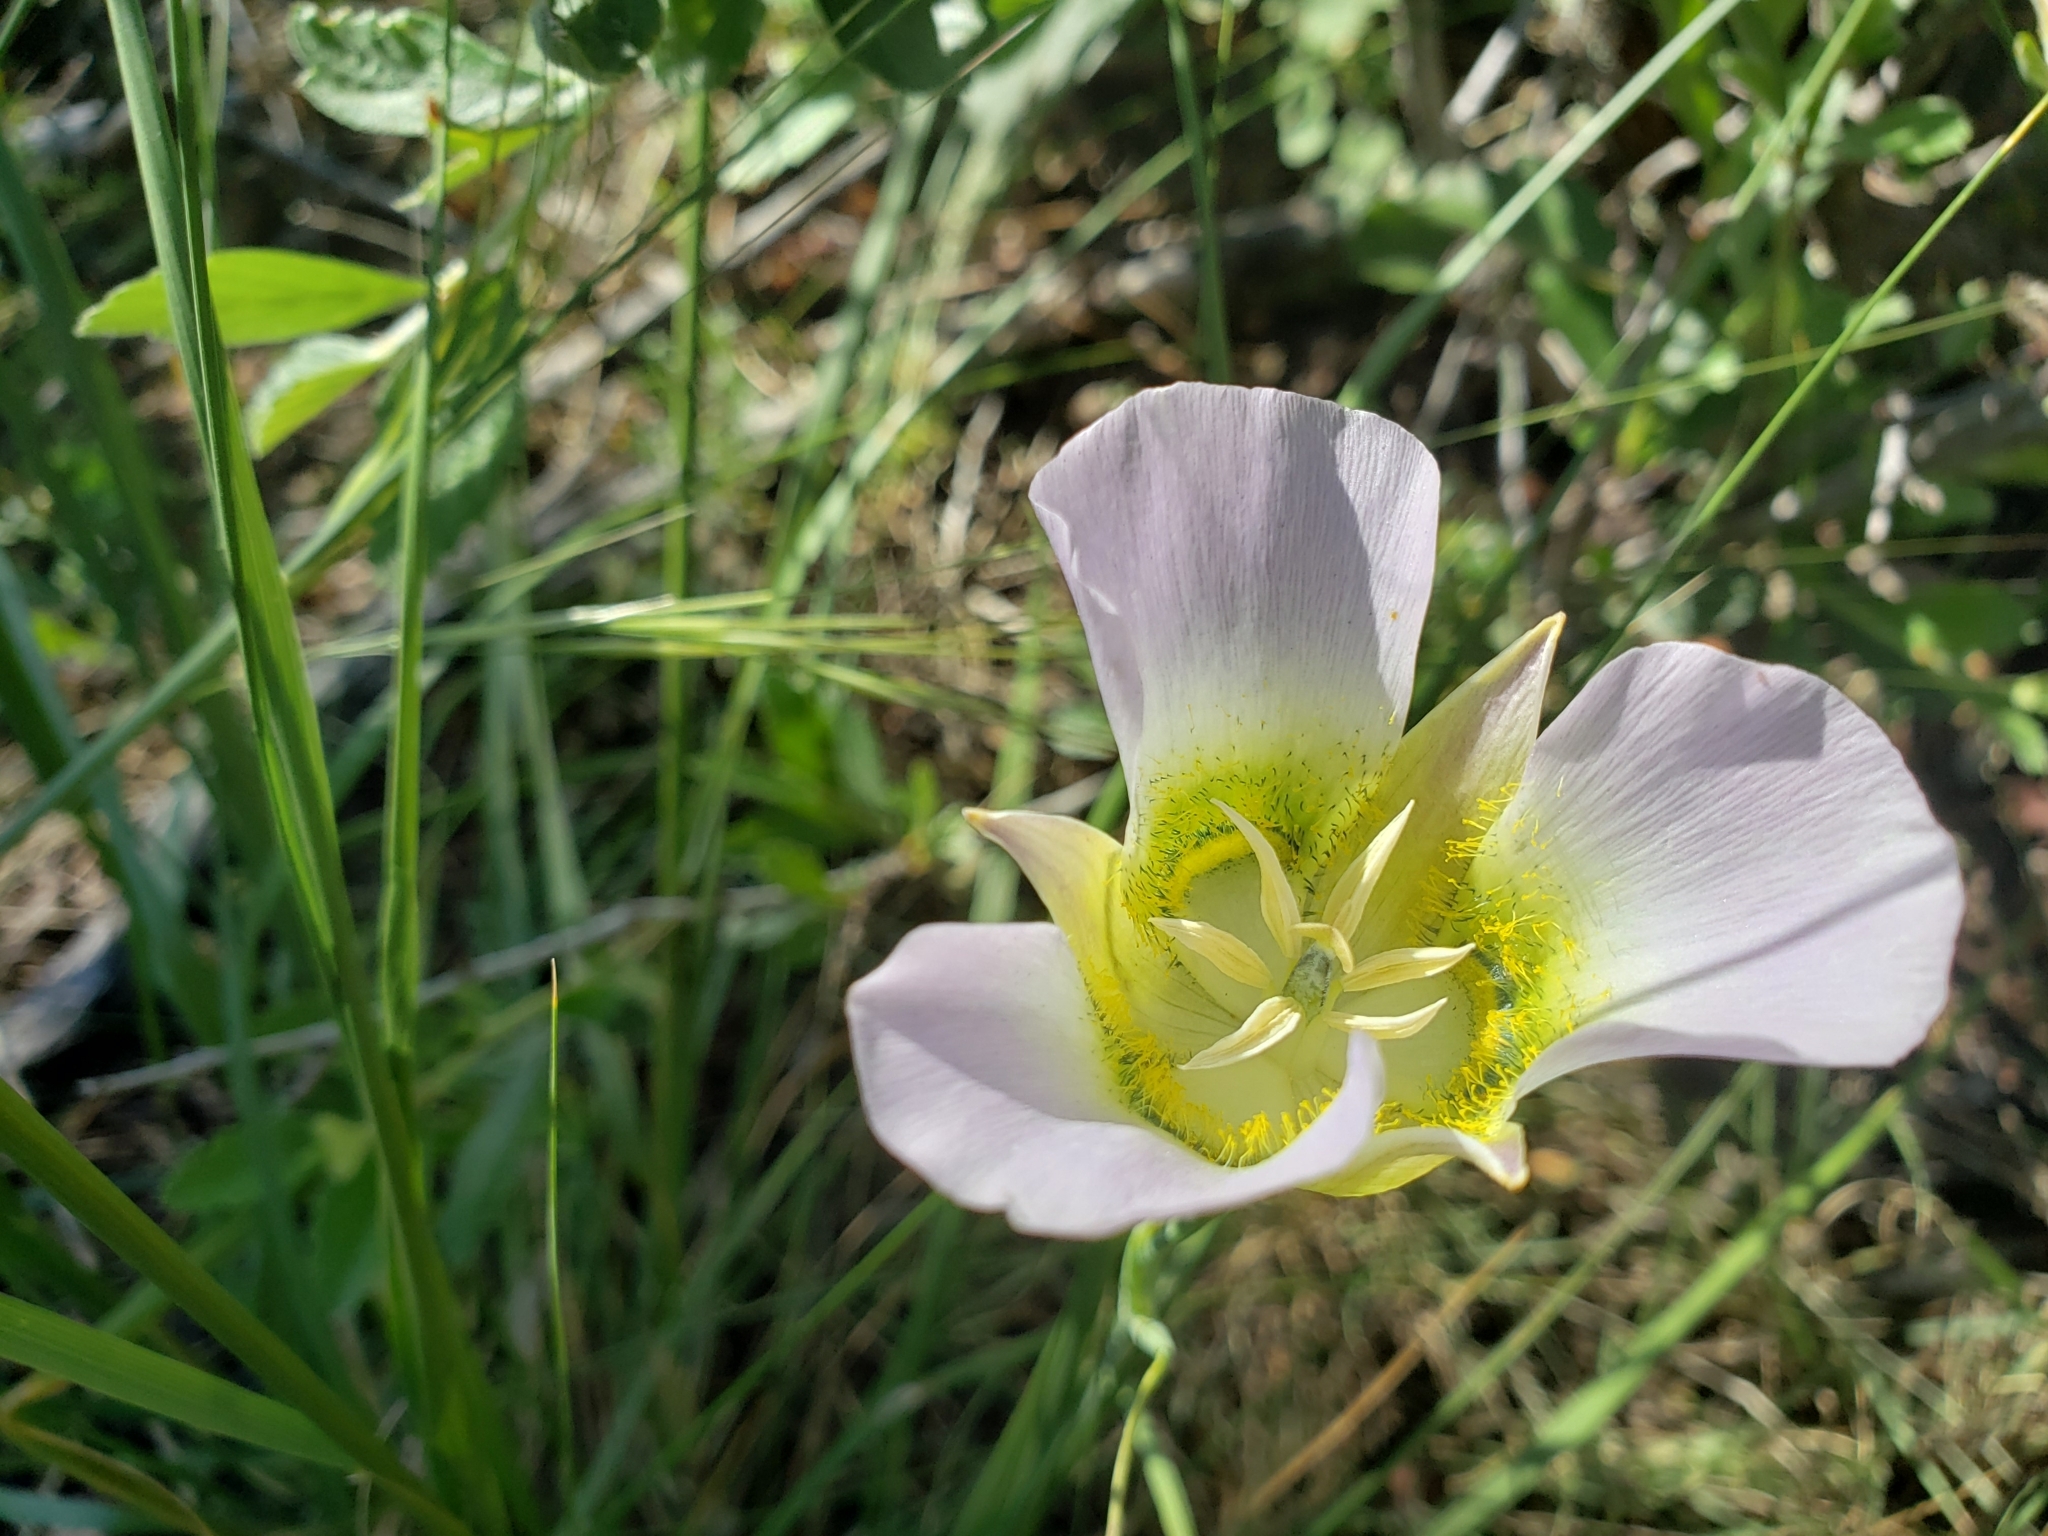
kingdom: Plantae
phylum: Tracheophyta
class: Liliopsida
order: Liliales
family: Liliaceae
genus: Calochortus
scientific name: Calochortus gunnisonii
